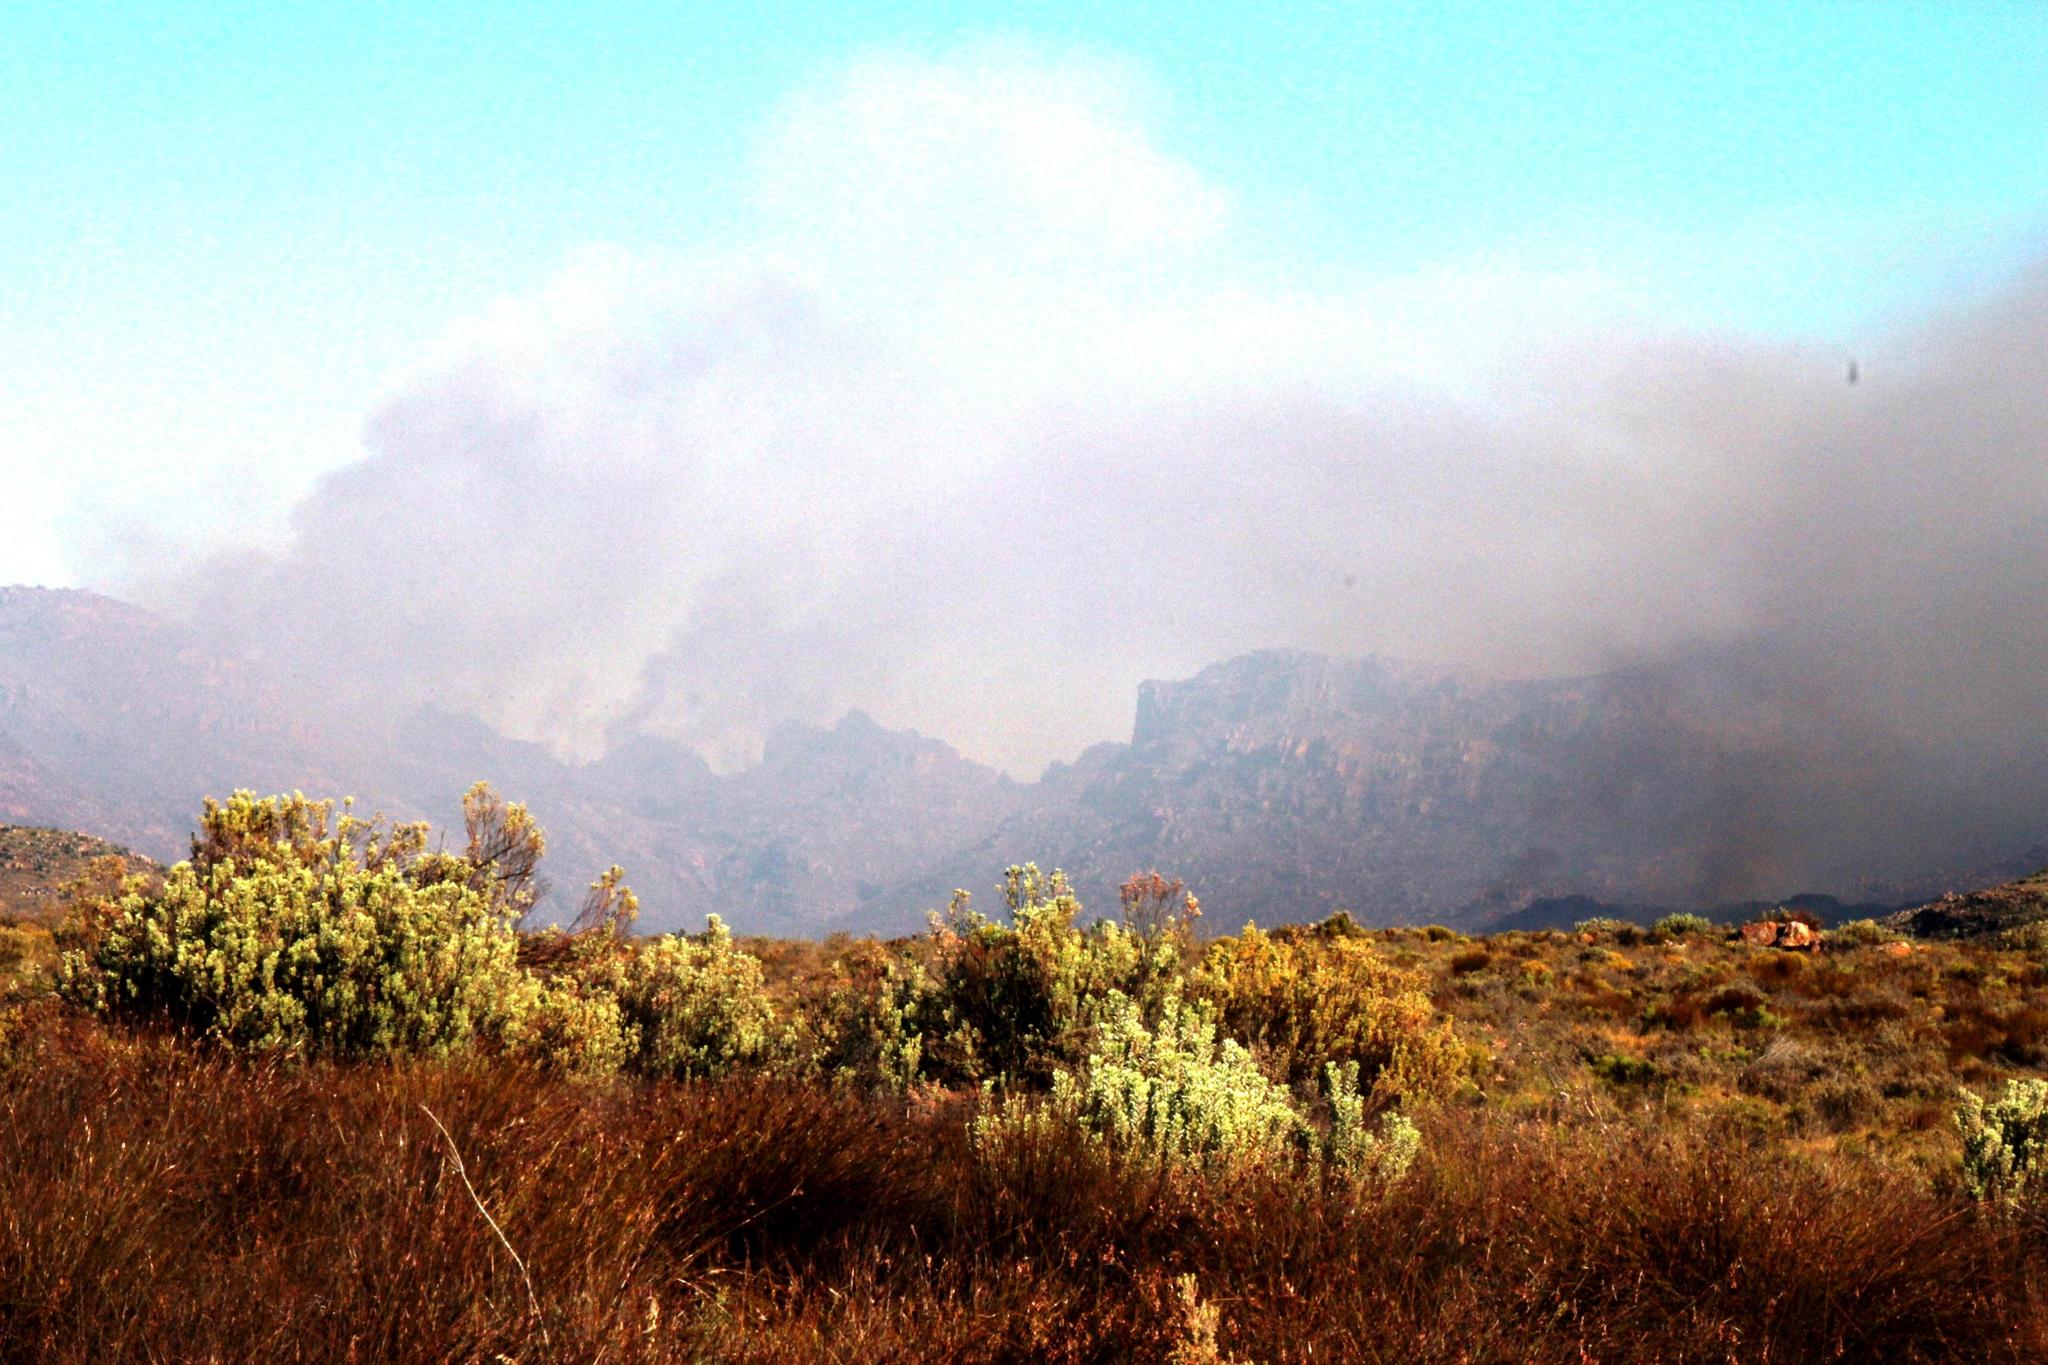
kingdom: Plantae
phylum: Tracheophyta
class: Magnoliopsida
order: Proteales
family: Proteaceae
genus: Protea
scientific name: Protea laurifolia
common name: Grey-leaf sugarbsh
